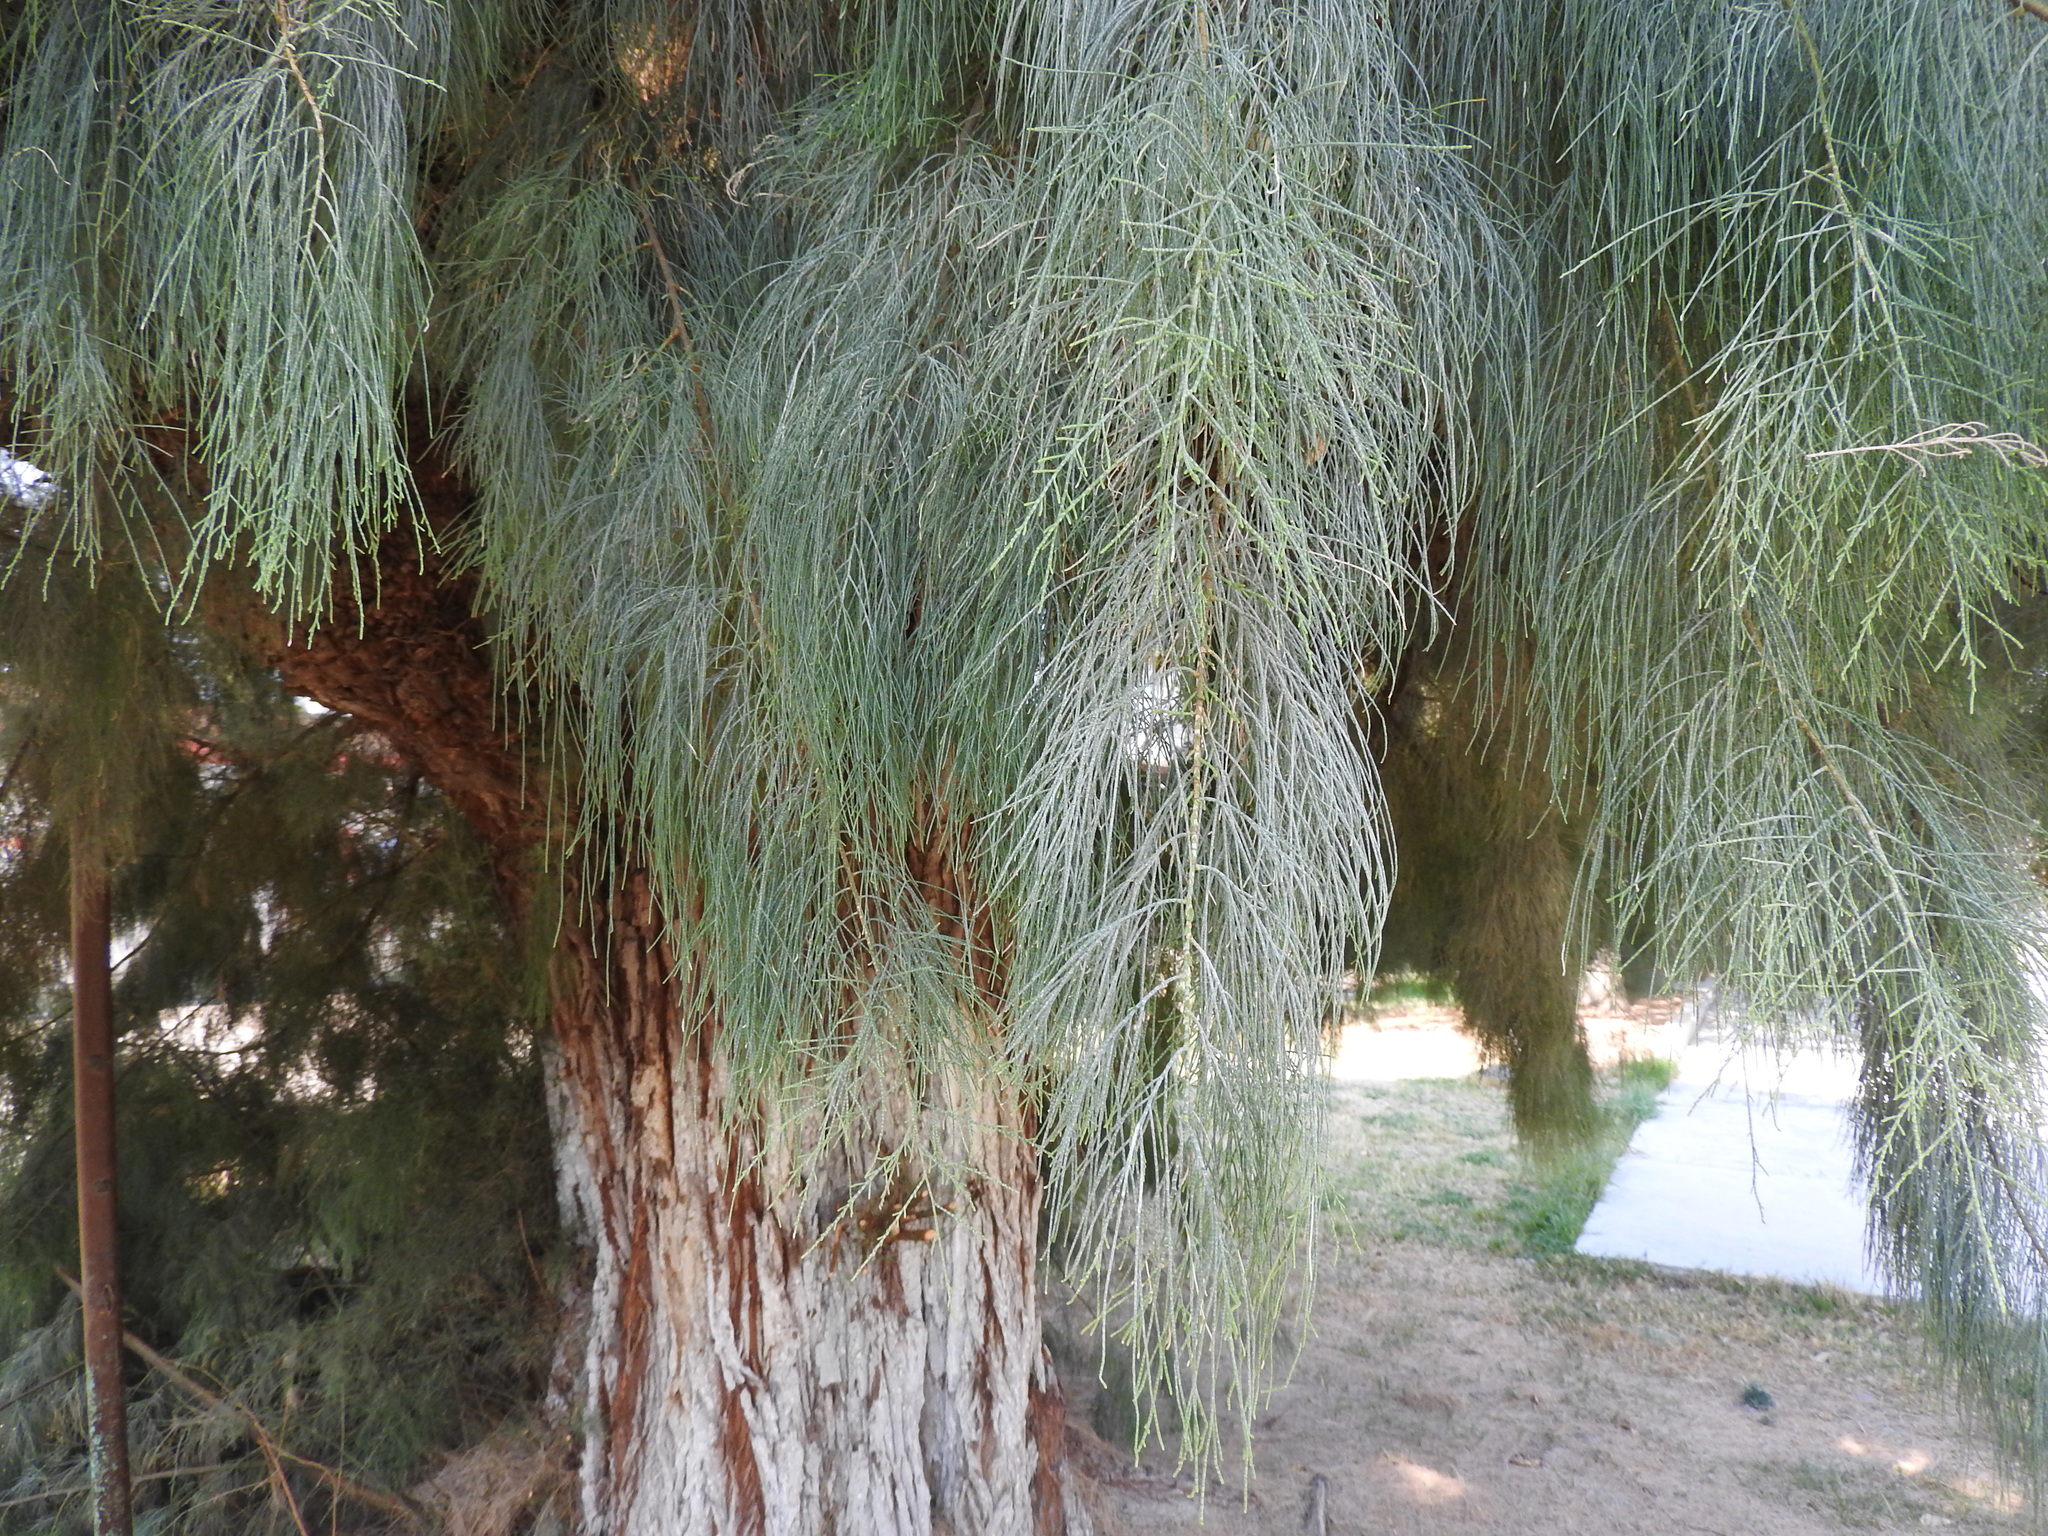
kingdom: Plantae
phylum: Tracheophyta
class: Magnoliopsida
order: Caryophyllales
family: Tamaricaceae
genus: Tamarix
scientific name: Tamarix aphylla
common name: Athel tamarisk
